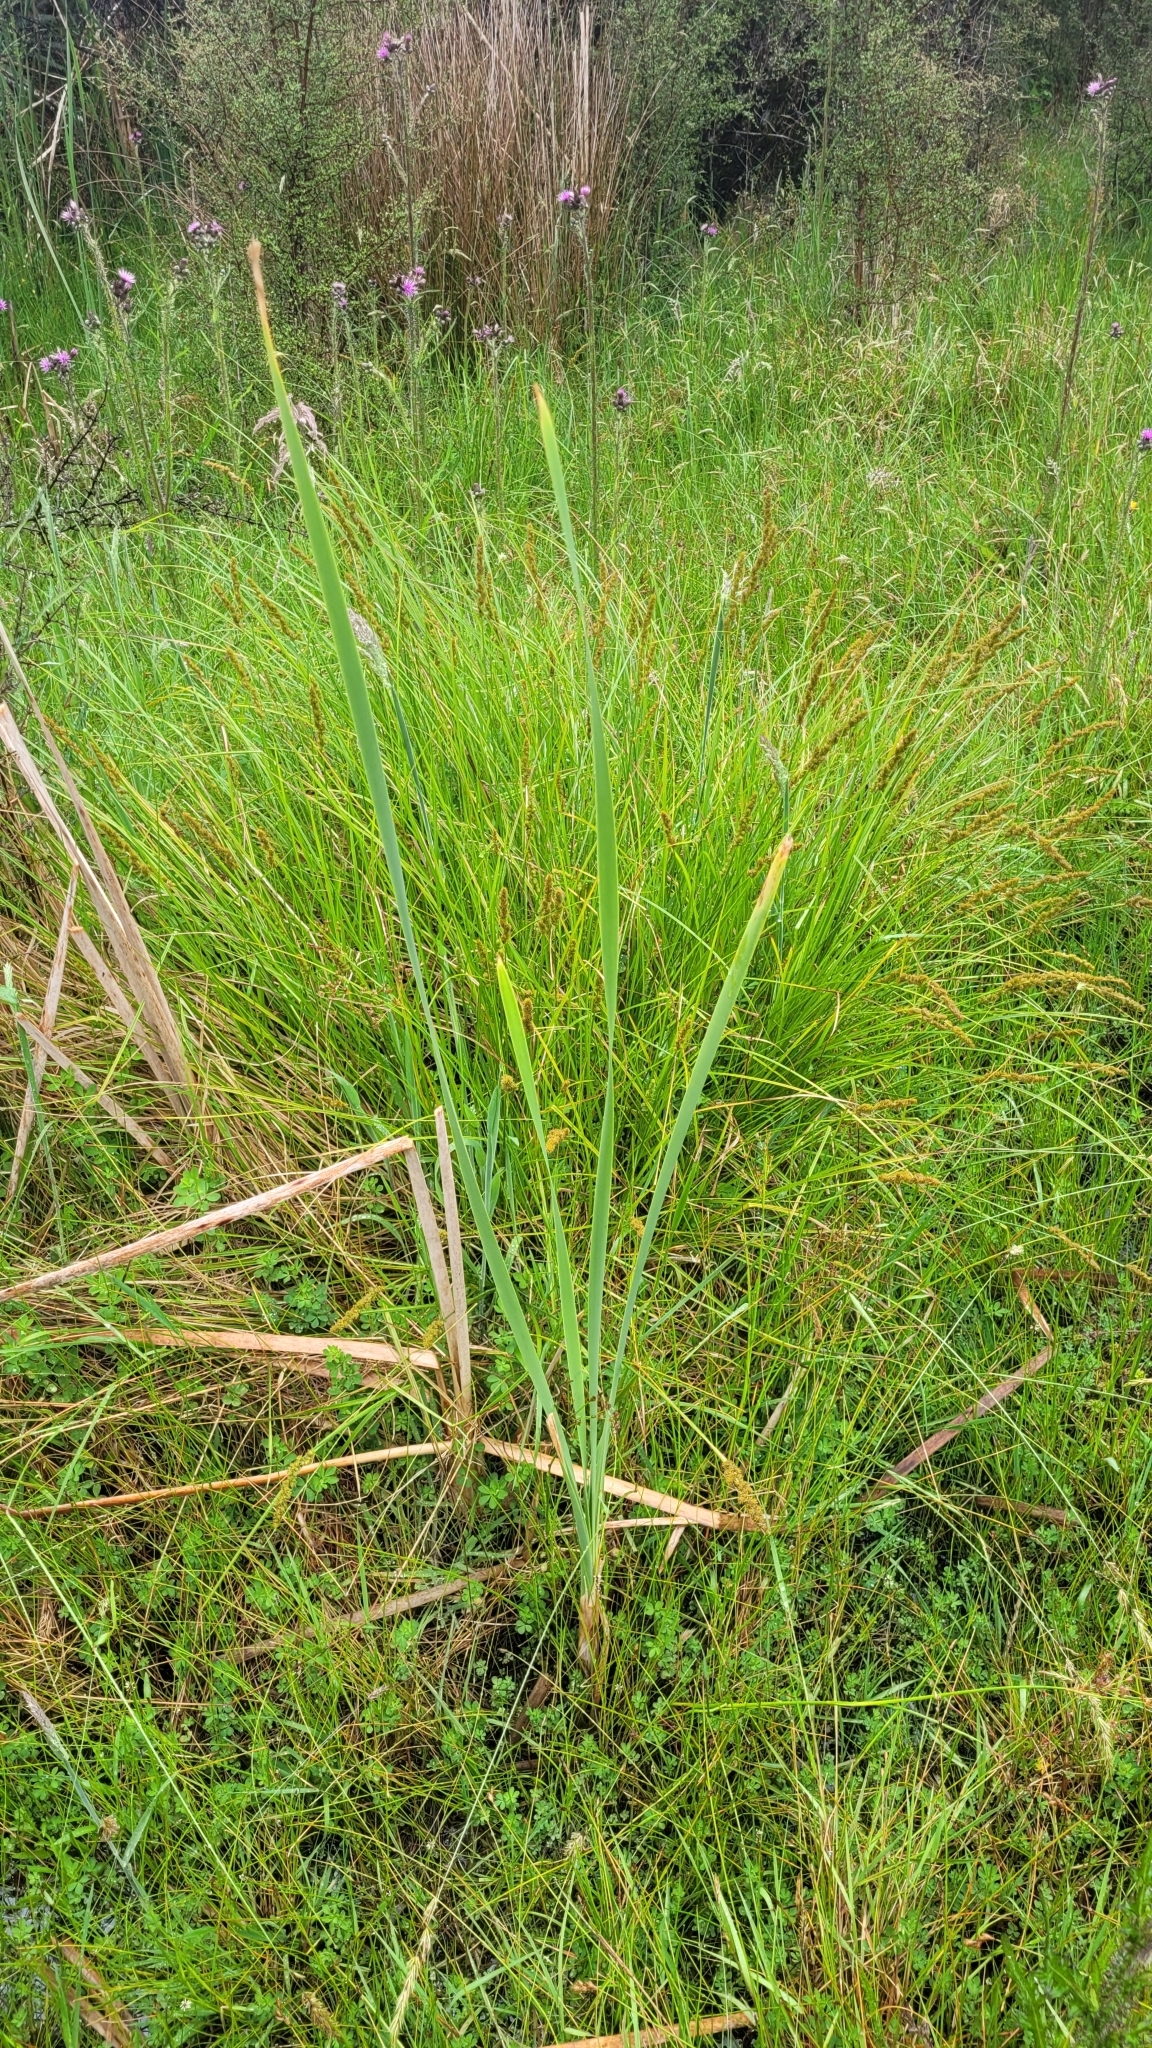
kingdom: Plantae
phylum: Tracheophyta
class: Liliopsida
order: Poales
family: Typhaceae
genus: Typha
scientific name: Typha orientalis
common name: Bullrush
